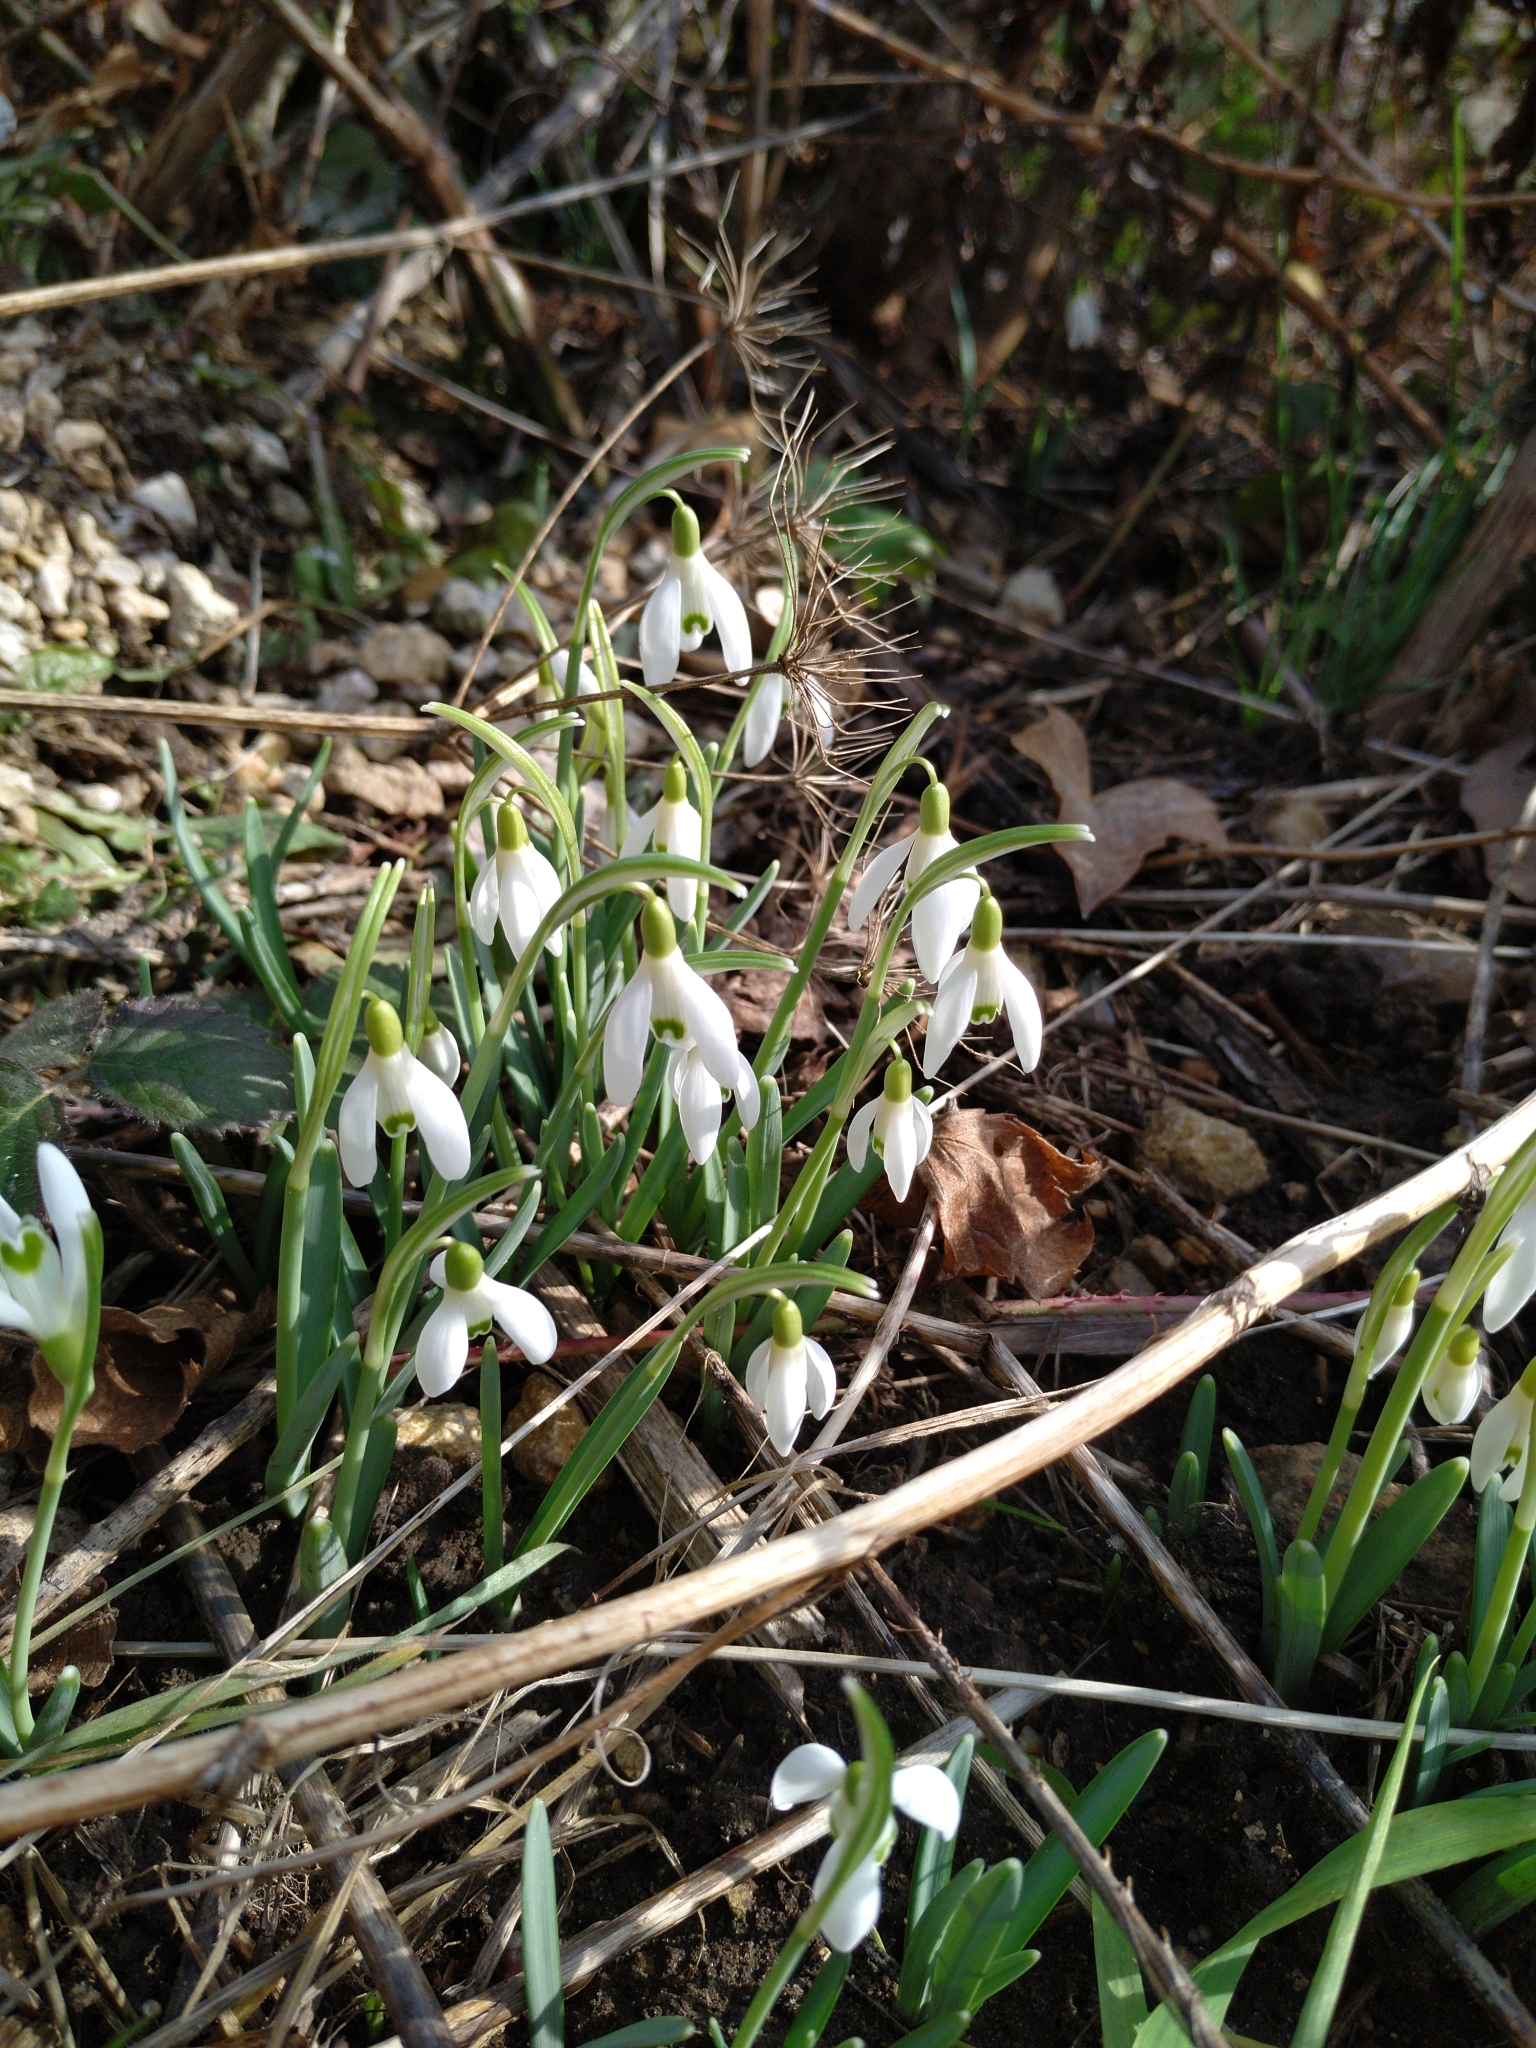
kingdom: Plantae
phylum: Tracheophyta
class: Liliopsida
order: Asparagales
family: Amaryllidaceae
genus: Galanthus
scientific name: Galanthus nivalis
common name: Snowdrop
